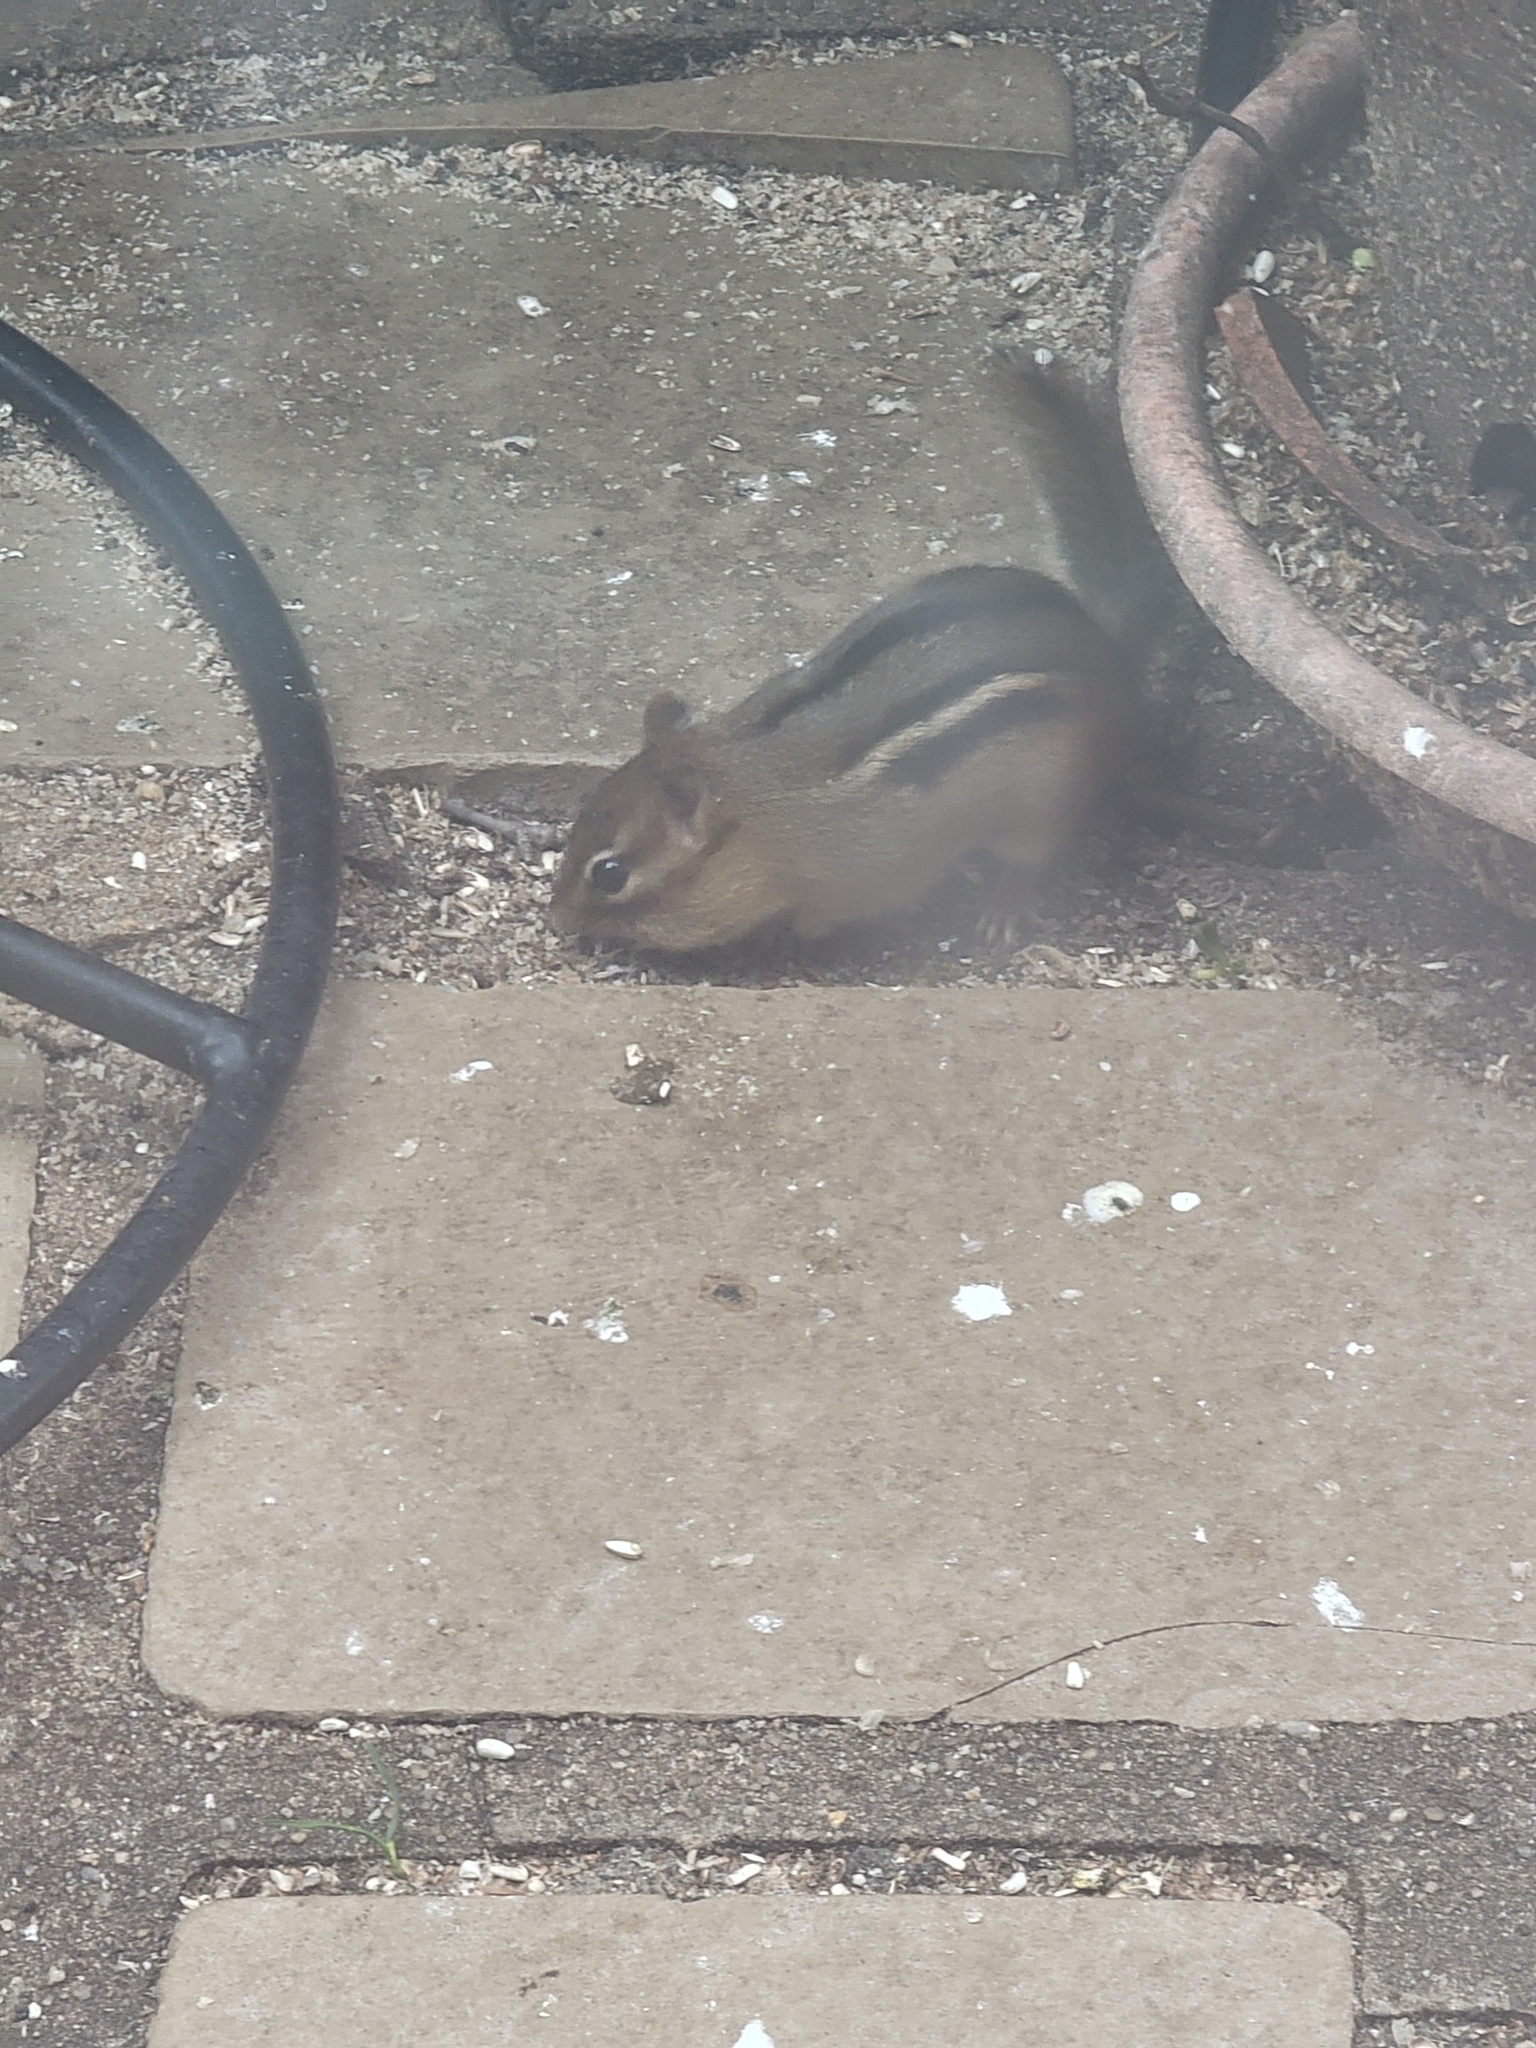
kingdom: Animalia
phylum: Chordata
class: Mammalia
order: Rodentia
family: Sciuridae
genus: Tamias
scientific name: Tamias striatus
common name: Eastern chipmunk
